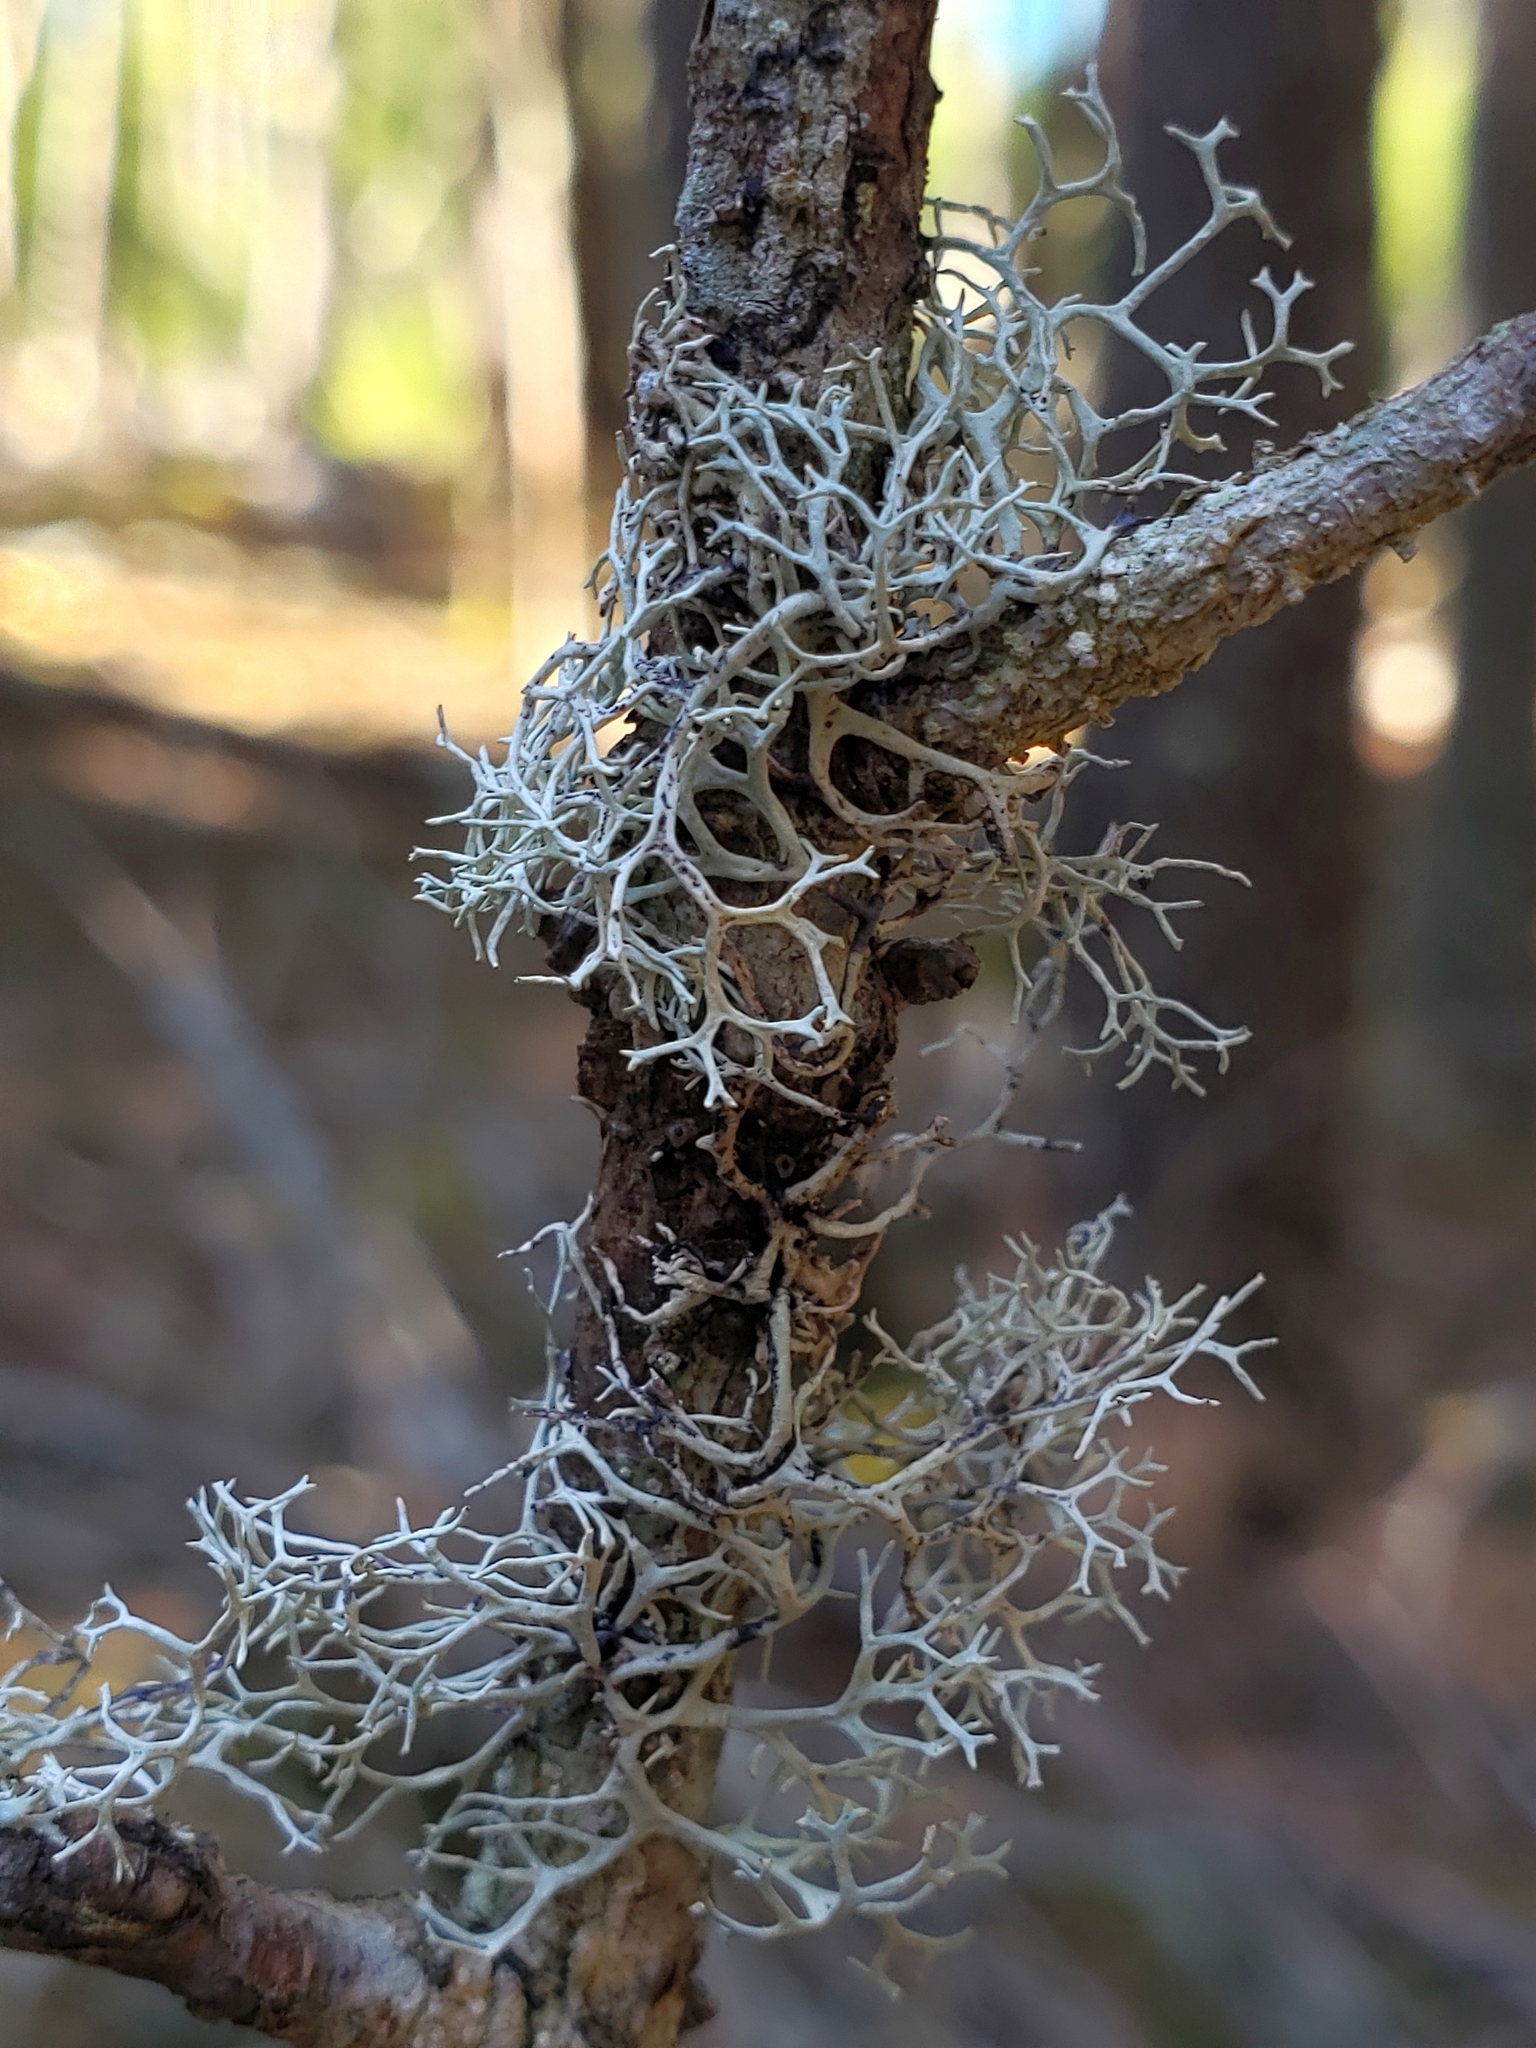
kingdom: Fungi
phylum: Ascomycota
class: Lecanoromycetes
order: Lecanorales
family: Parmeliaceae
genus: Pseudevernia
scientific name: Pseudevernia cladonia
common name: Light-and-dark lichen
